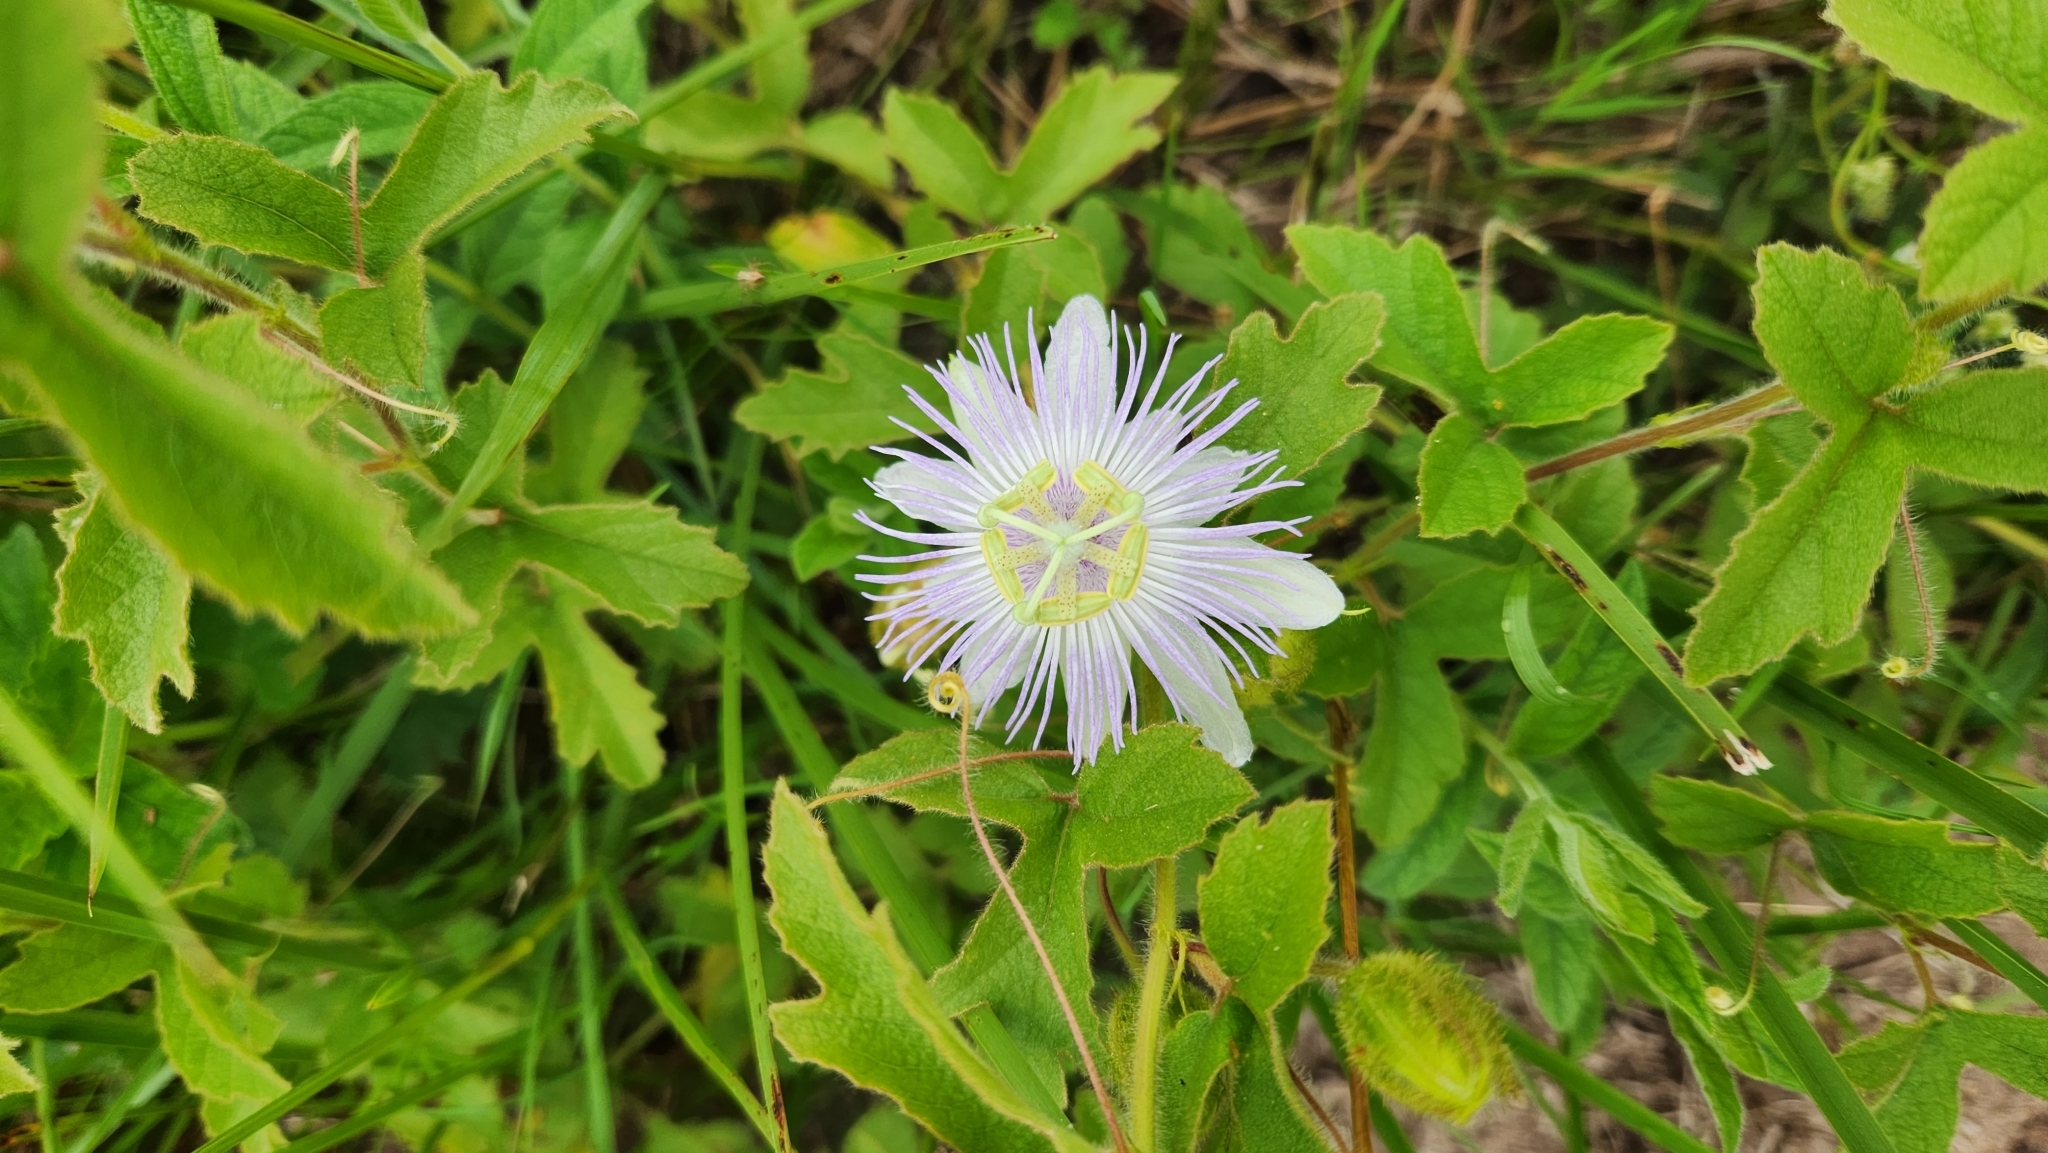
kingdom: Plantae
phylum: Tracheophyta
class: Magnoliopsida
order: Malpighiales
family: Passifloraceae
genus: Passiflora
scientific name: Passiflora chrysophylla
